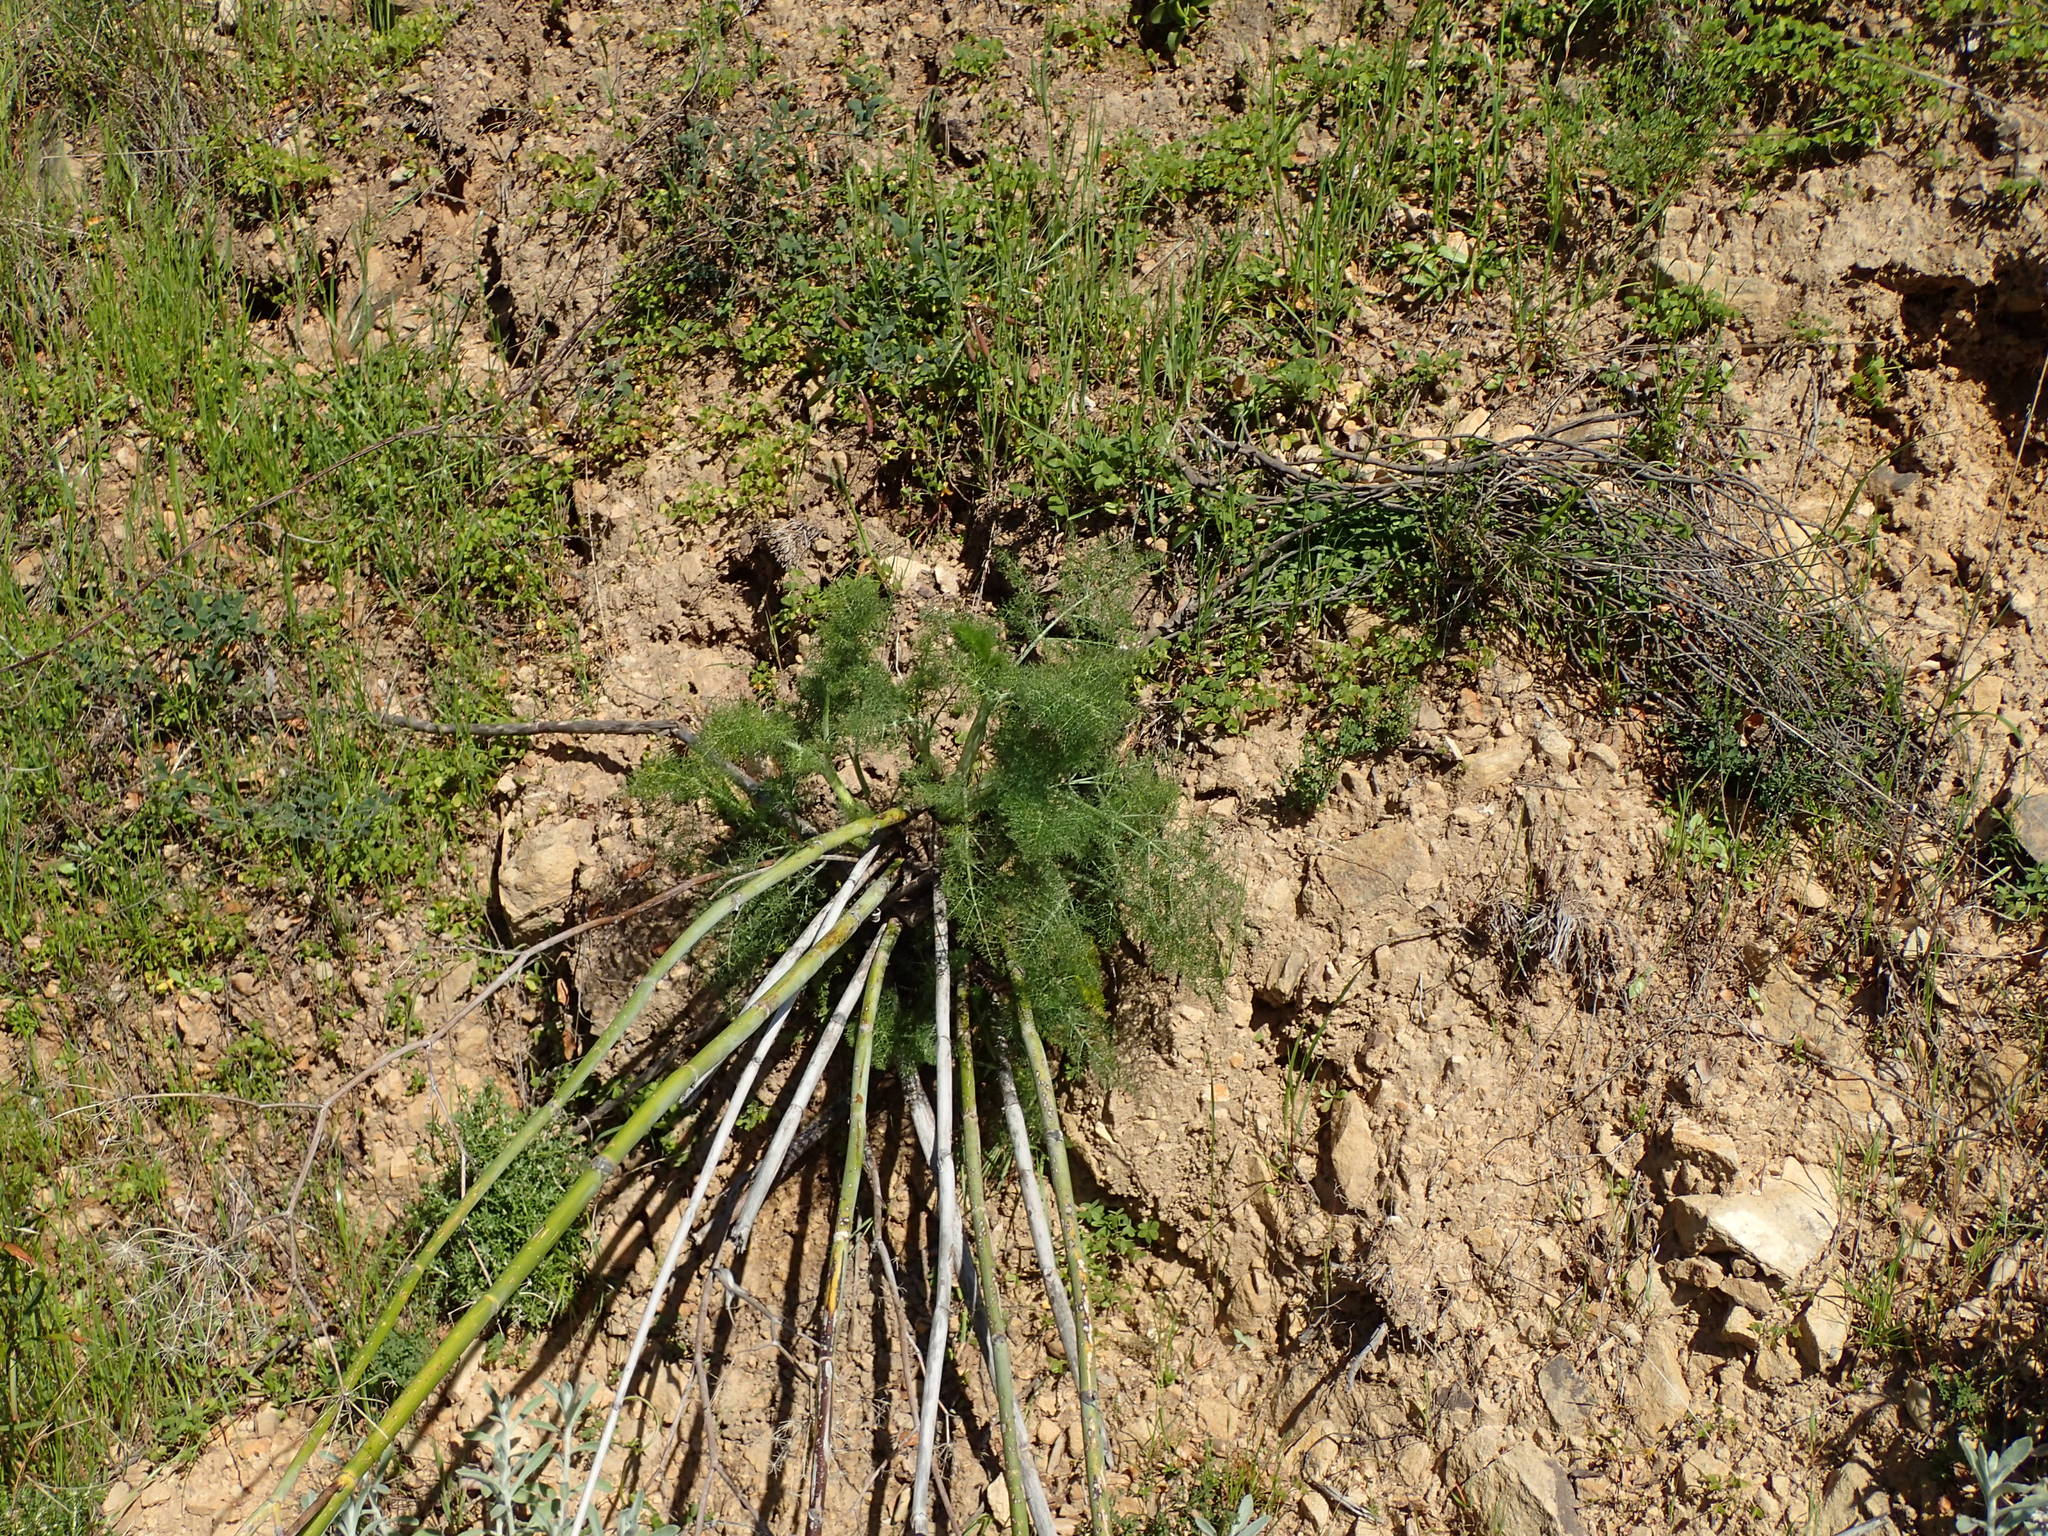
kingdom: Plantae
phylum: Tracheophyta
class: Magnoliopsida
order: Apiales
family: Apiaceae
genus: Foeniculum
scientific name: Foeniculum vulgare
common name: Fennel
